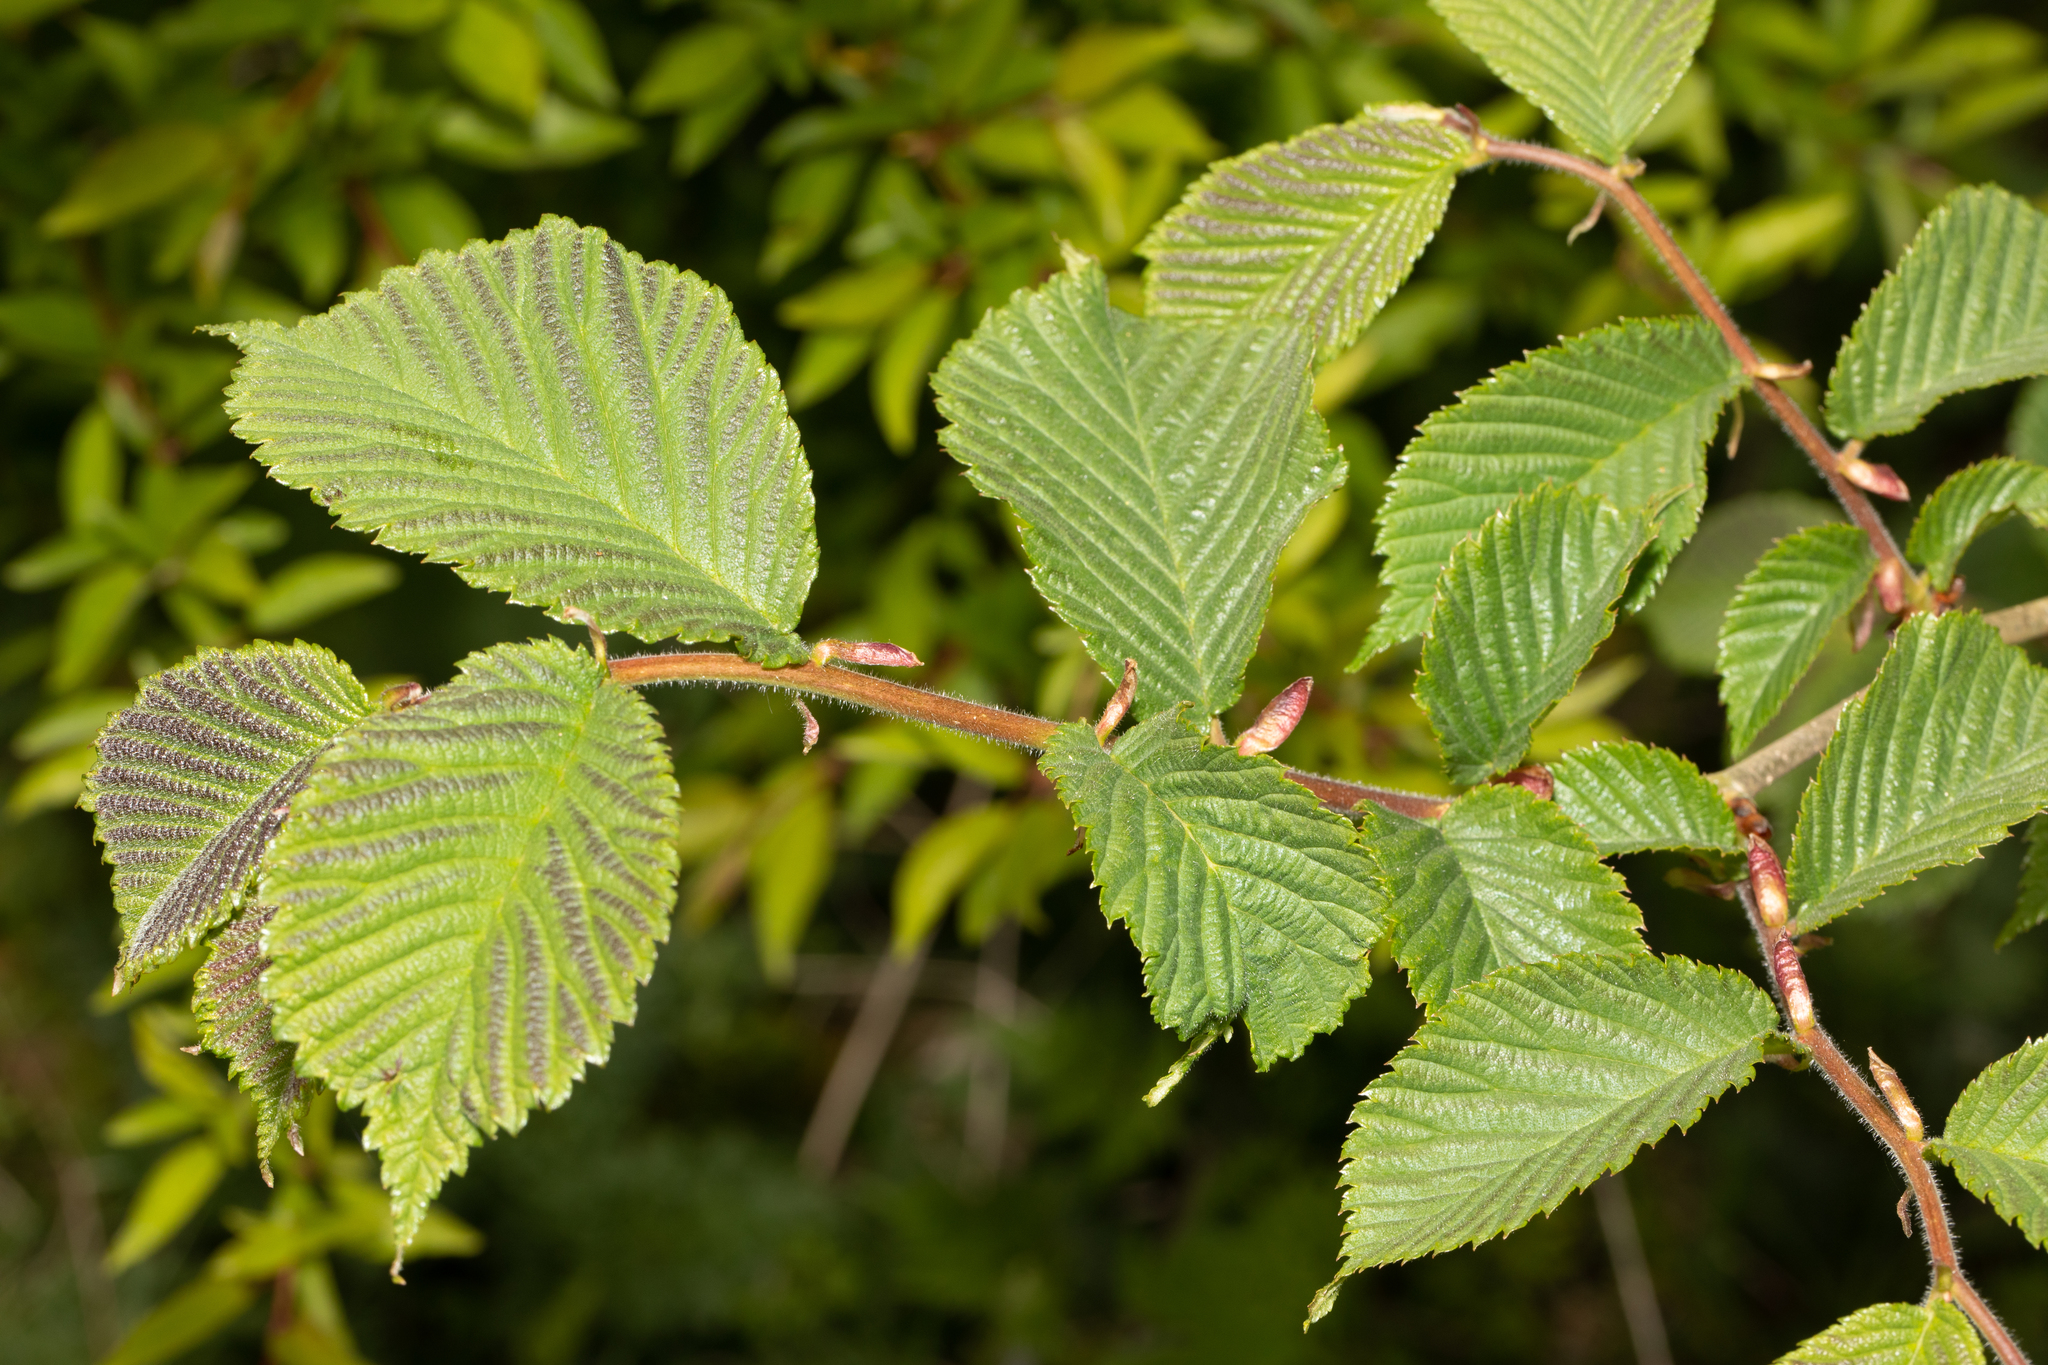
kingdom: Plantae
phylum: Tracheophyta
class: Magnoliopsida
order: Rosales
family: Ulmaceae
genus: Ulmus
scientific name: Ulmus glabra
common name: Wych elm
